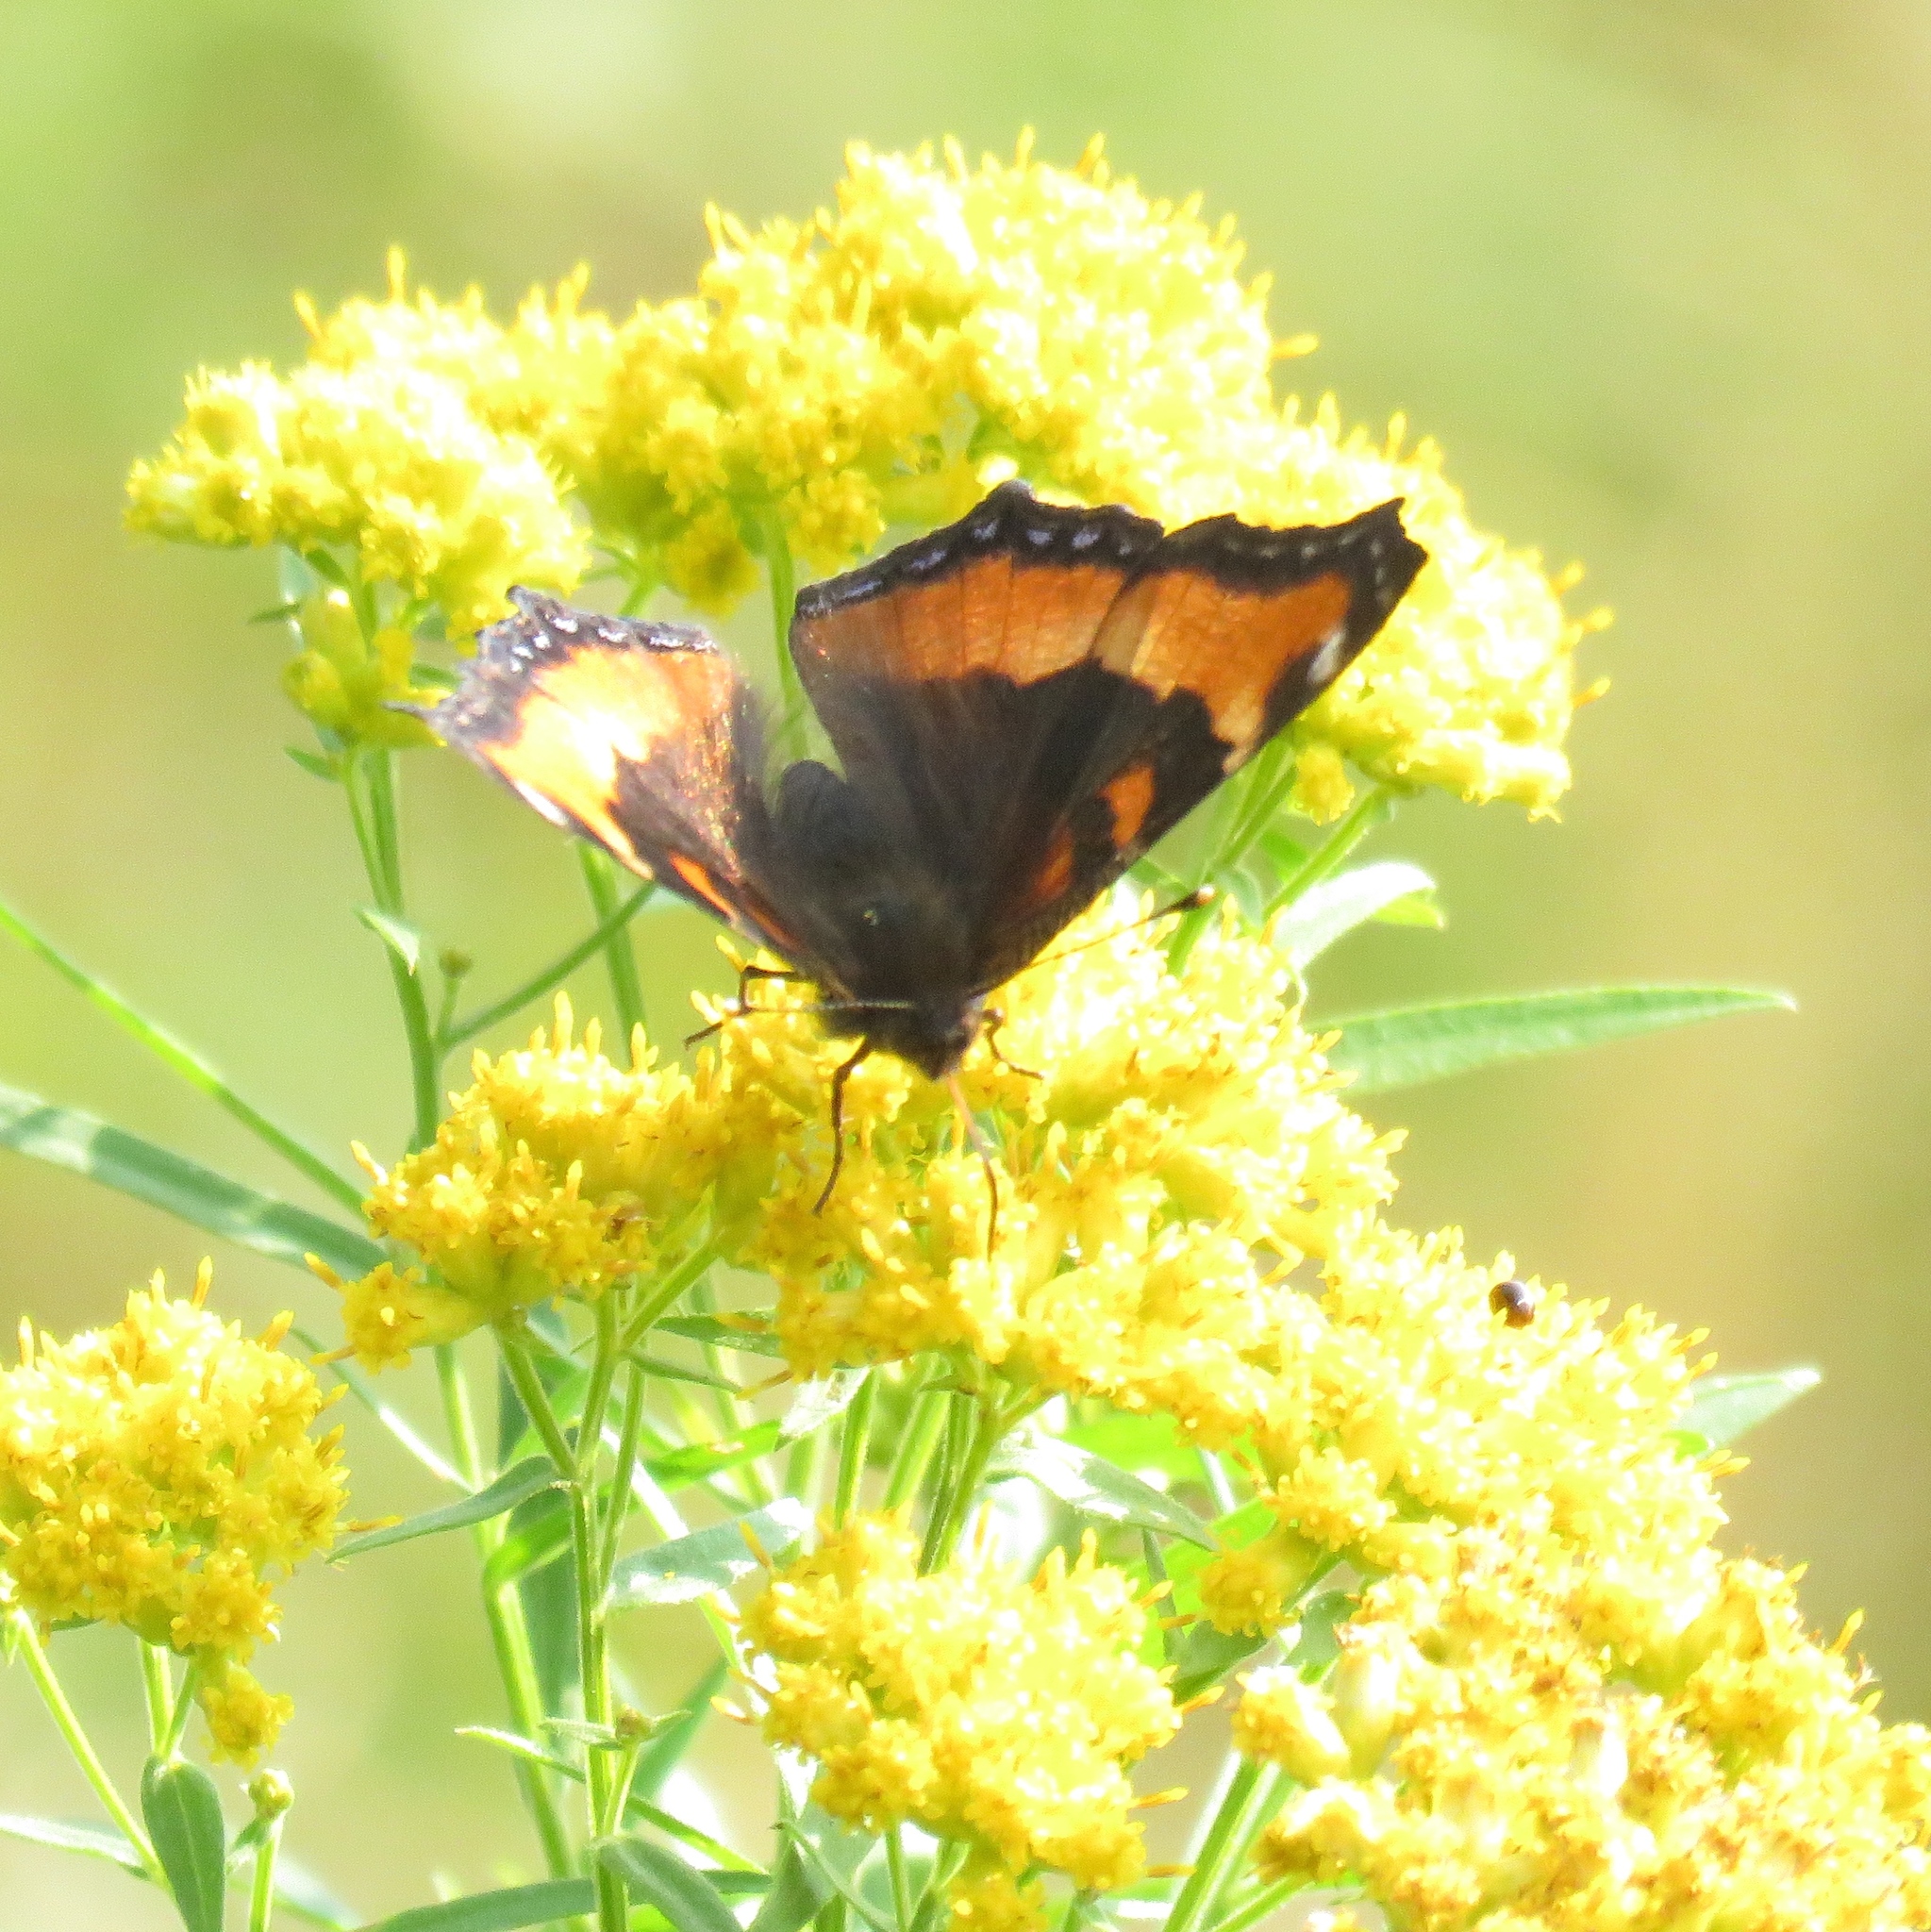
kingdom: Animalia
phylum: Arthropoda
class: Insecta
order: Lepidoptera
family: Nymphalidae
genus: Aglais
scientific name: Aglais milberti
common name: Milbert's tortoiseshell
